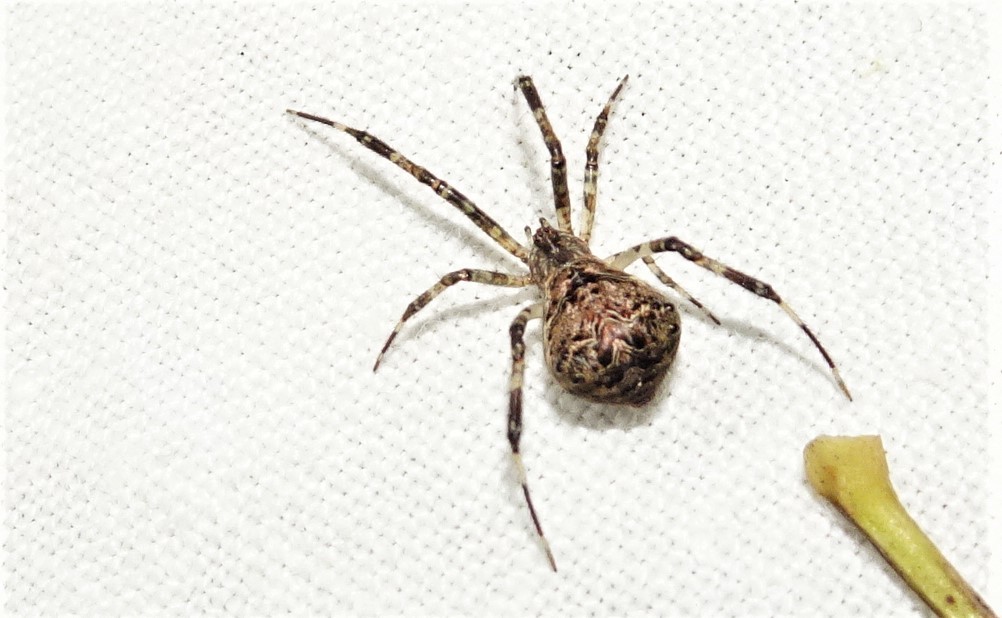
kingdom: Animalia
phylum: Arthropoda
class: Arachnida
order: Araneae
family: Theridiidae
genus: Janula
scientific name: Janula bicornis
